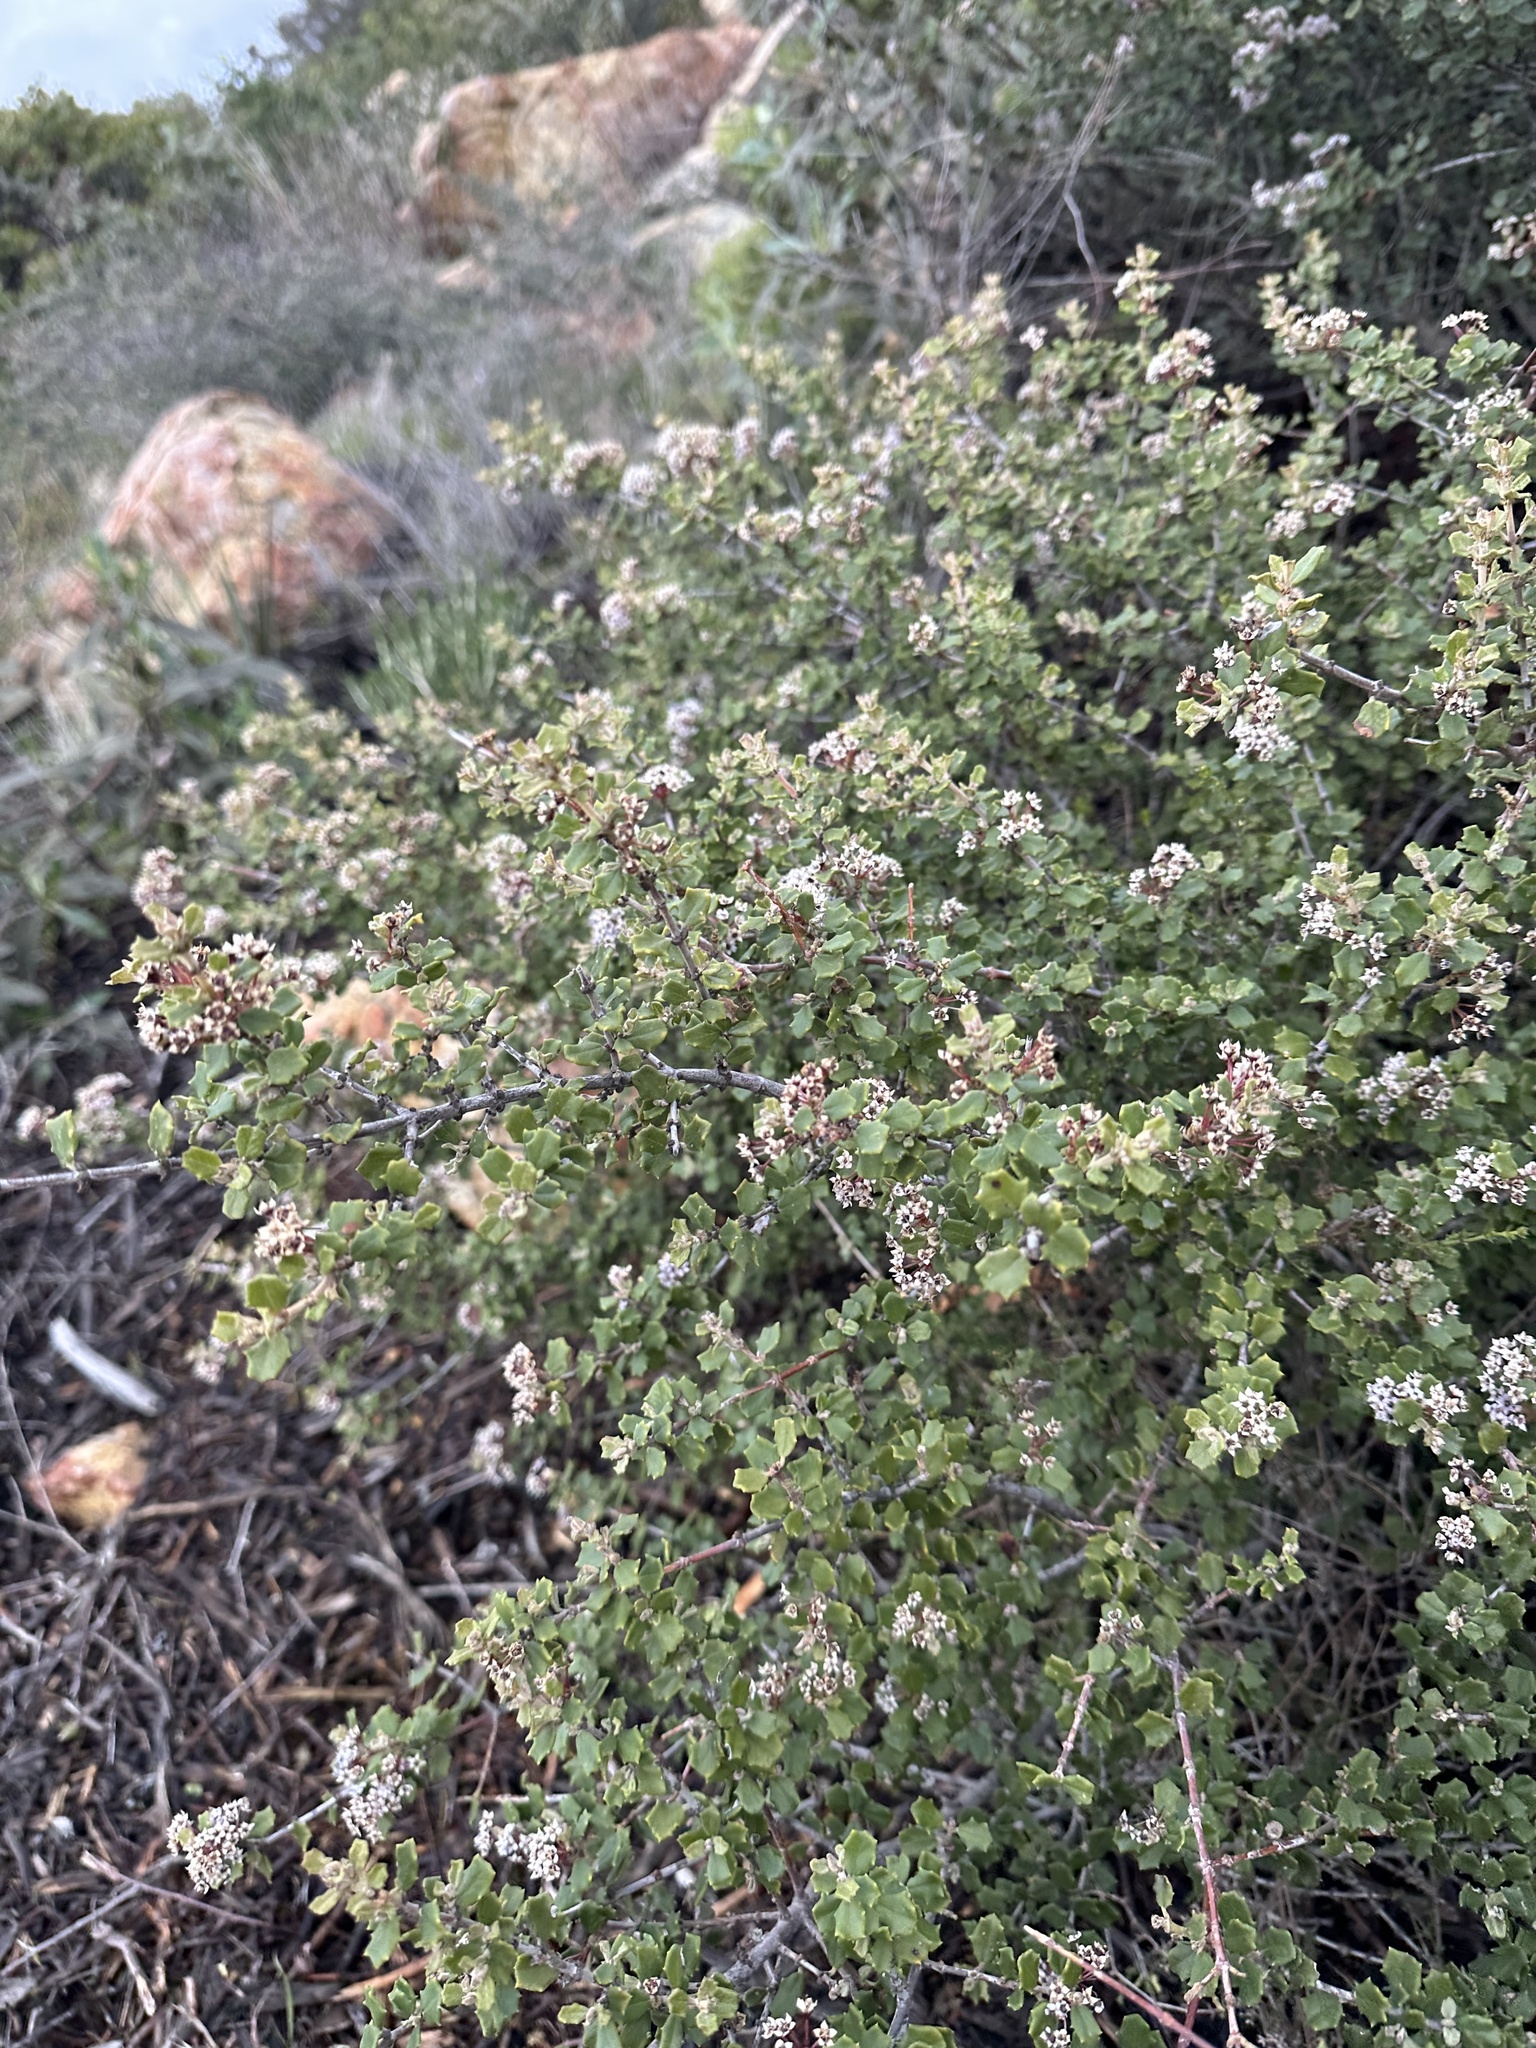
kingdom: Plantae
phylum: Tracheophyta
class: Magnoliopsida
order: Rosales
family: Rhamnaceae
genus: Ceanothus
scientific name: Ceanothus otayensis
